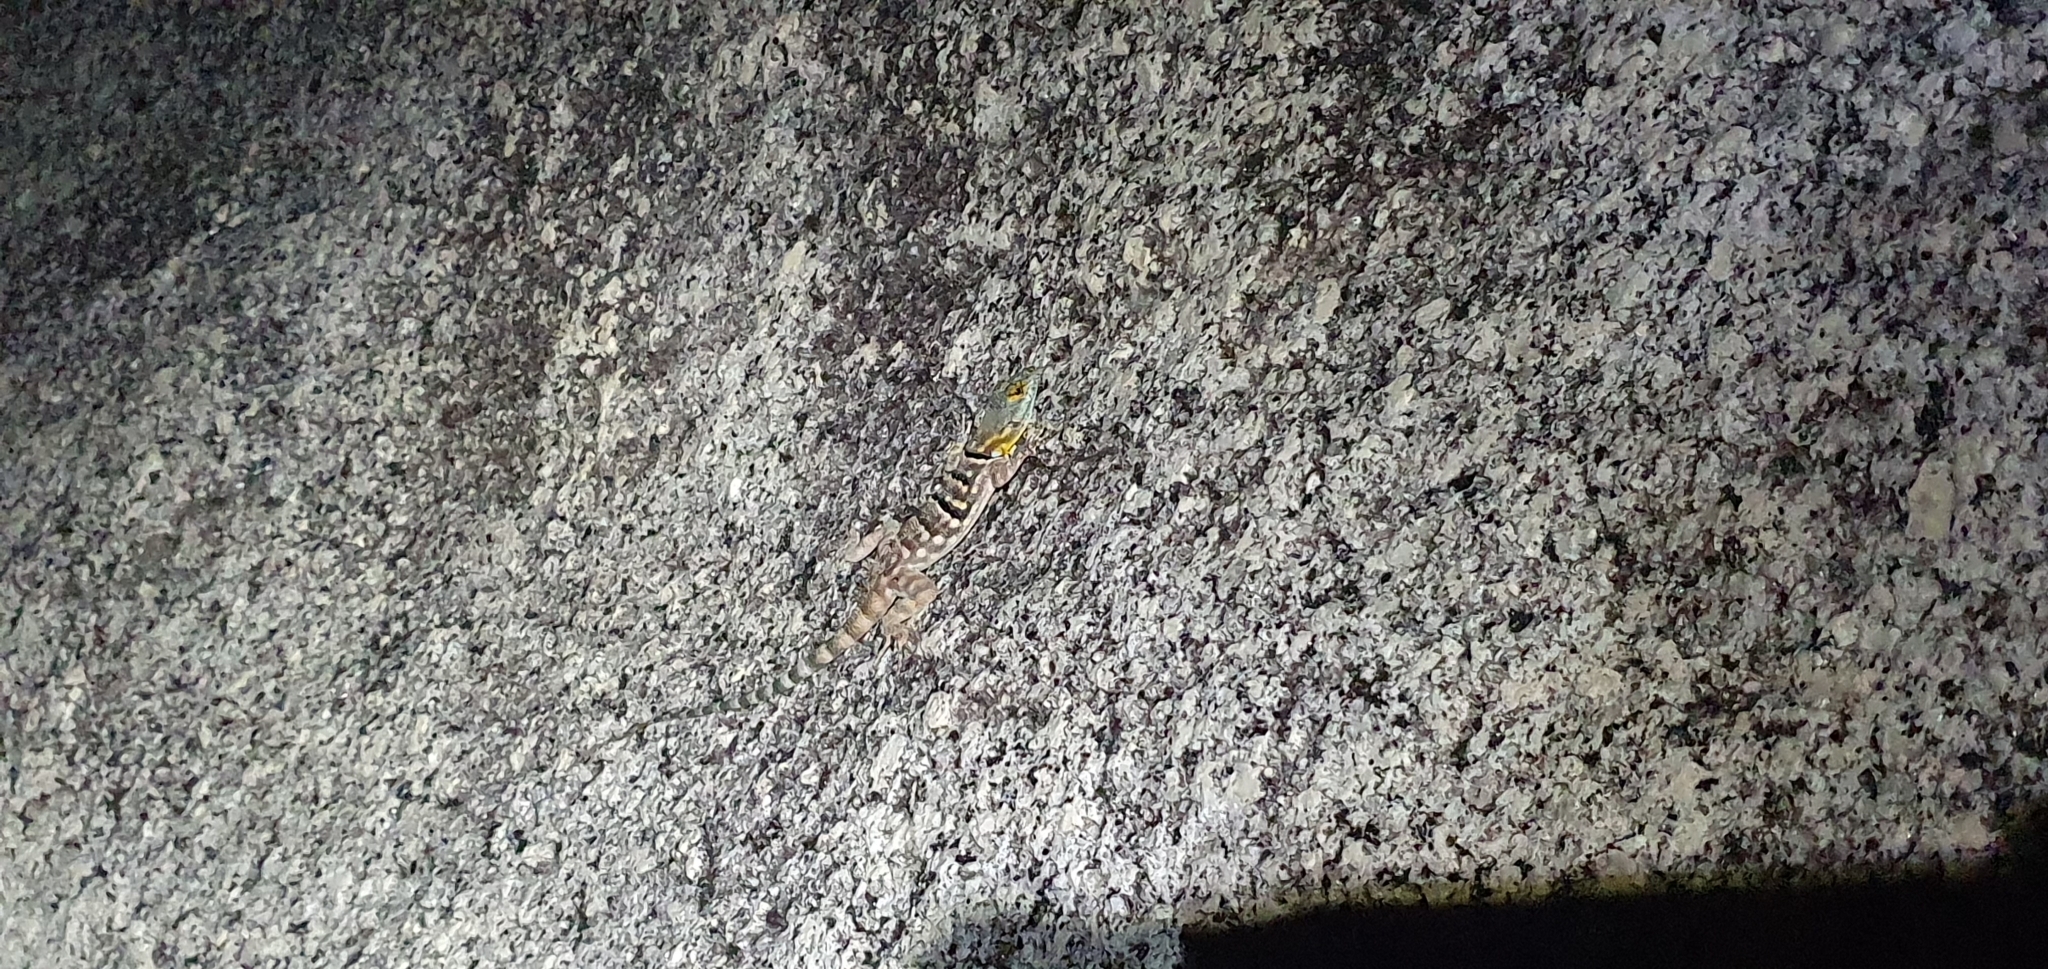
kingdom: Animalia
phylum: Chordata
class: Squamata
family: Phrynosomatidae
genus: Petrosaurus
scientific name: Petrosaurus thalassinus
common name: Baja california rock lizard
